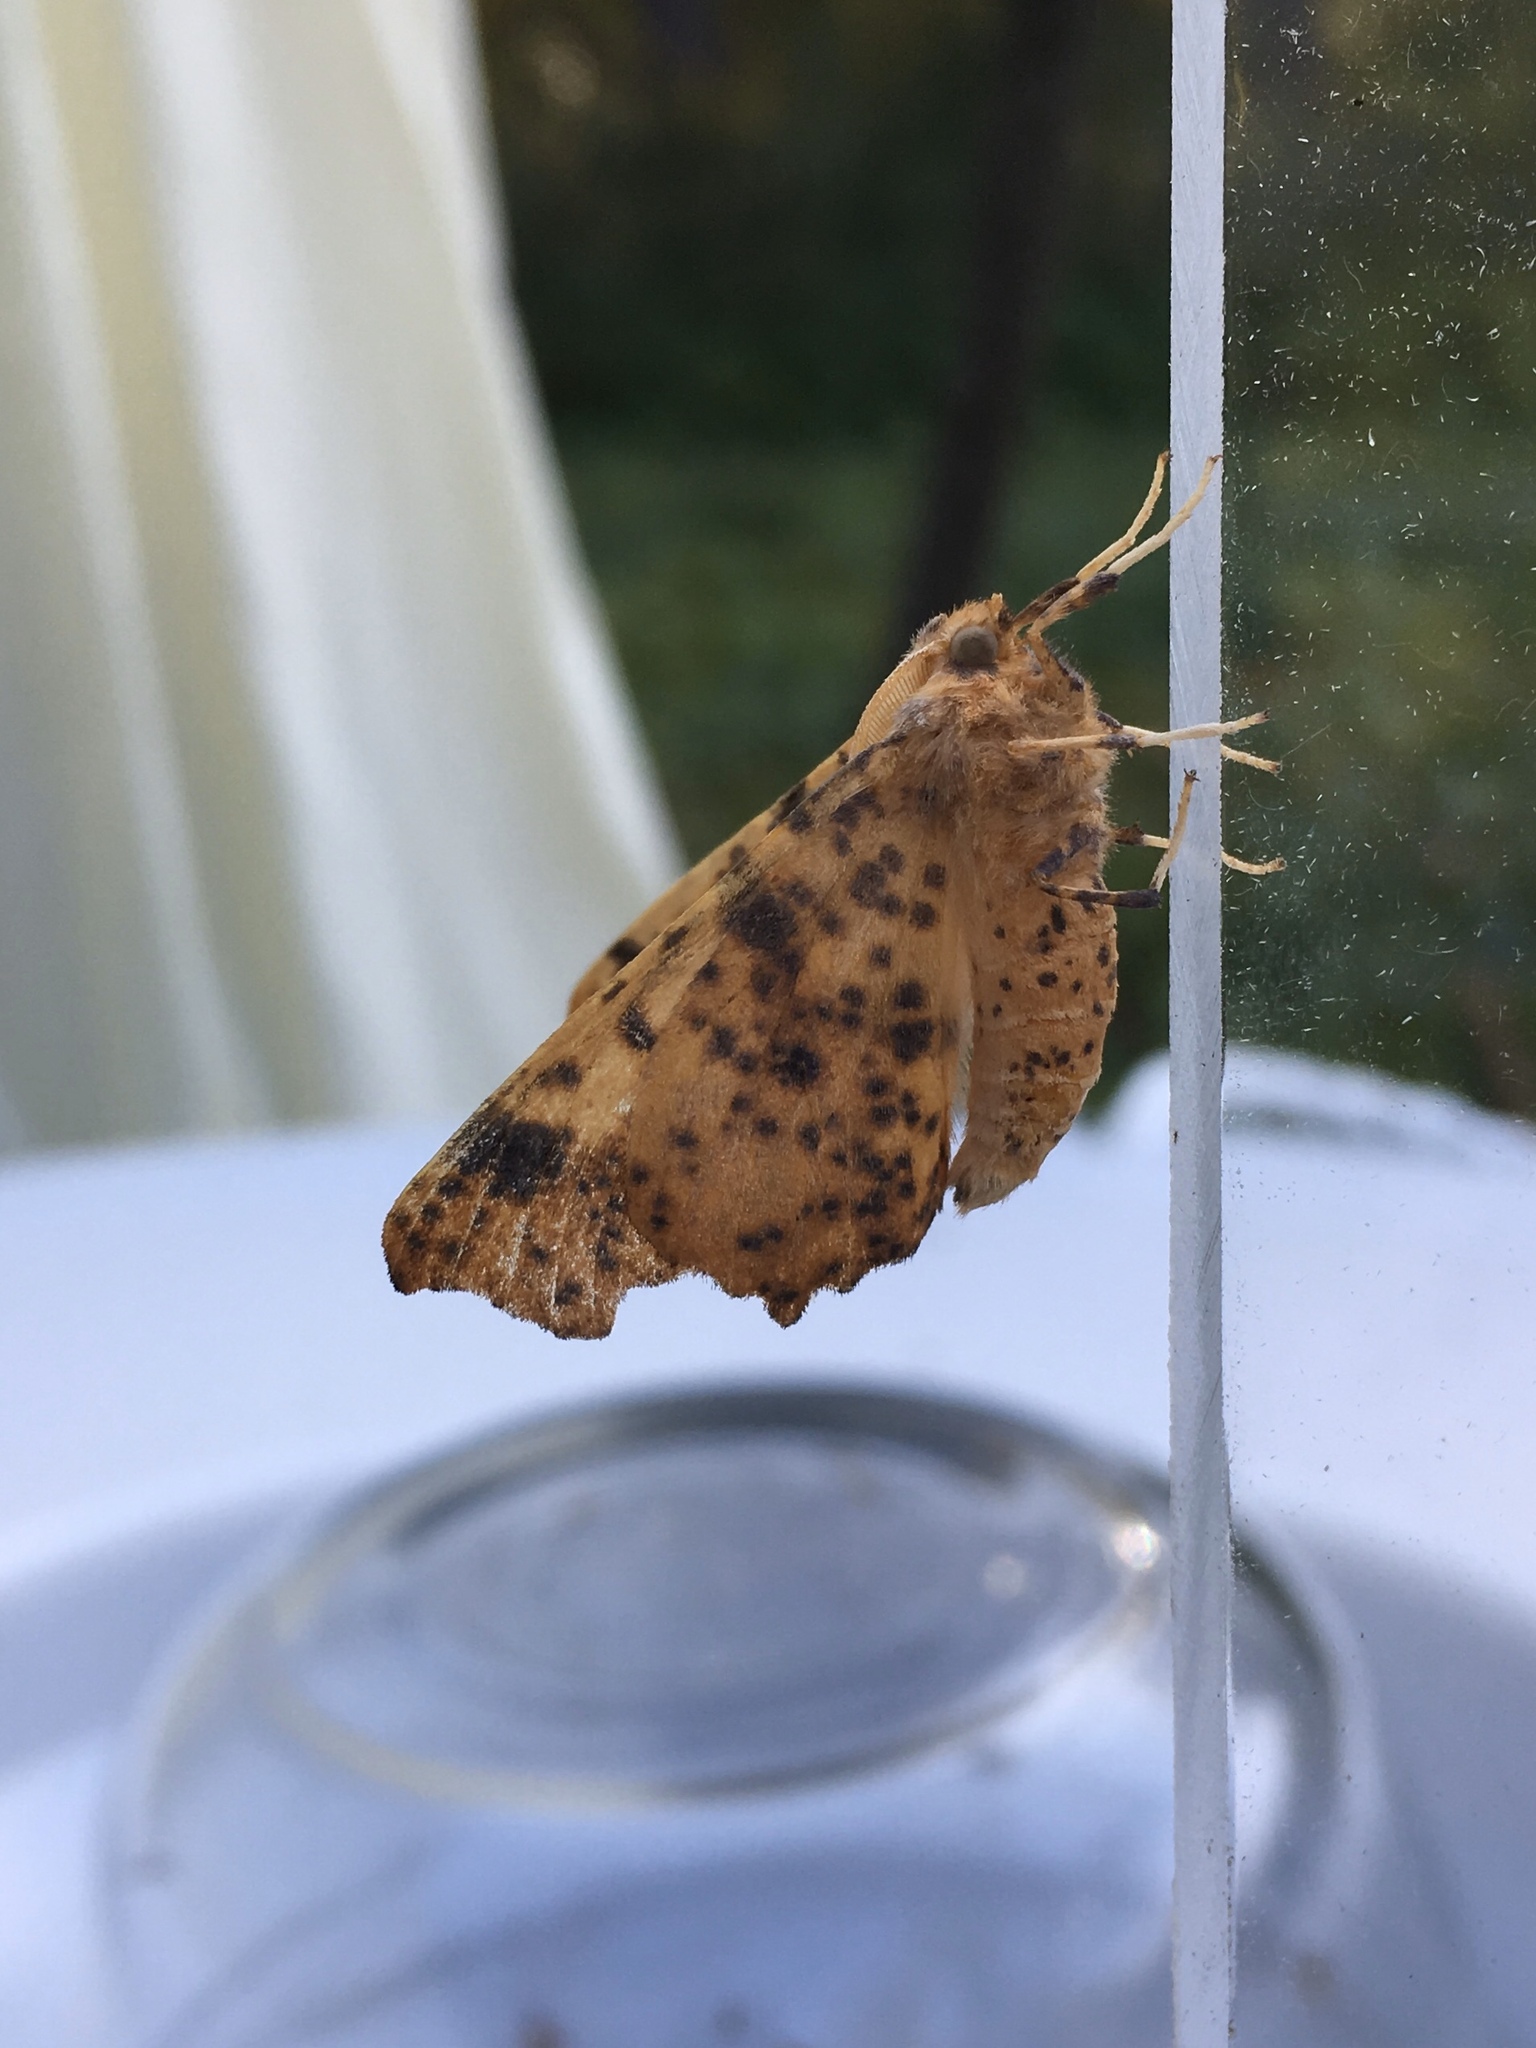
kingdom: Animalia
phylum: Arthropoda
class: Insecta
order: Lepidoptera
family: Geometridae
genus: Ennomos
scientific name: Ennomos magnaria
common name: Maple spanworm
